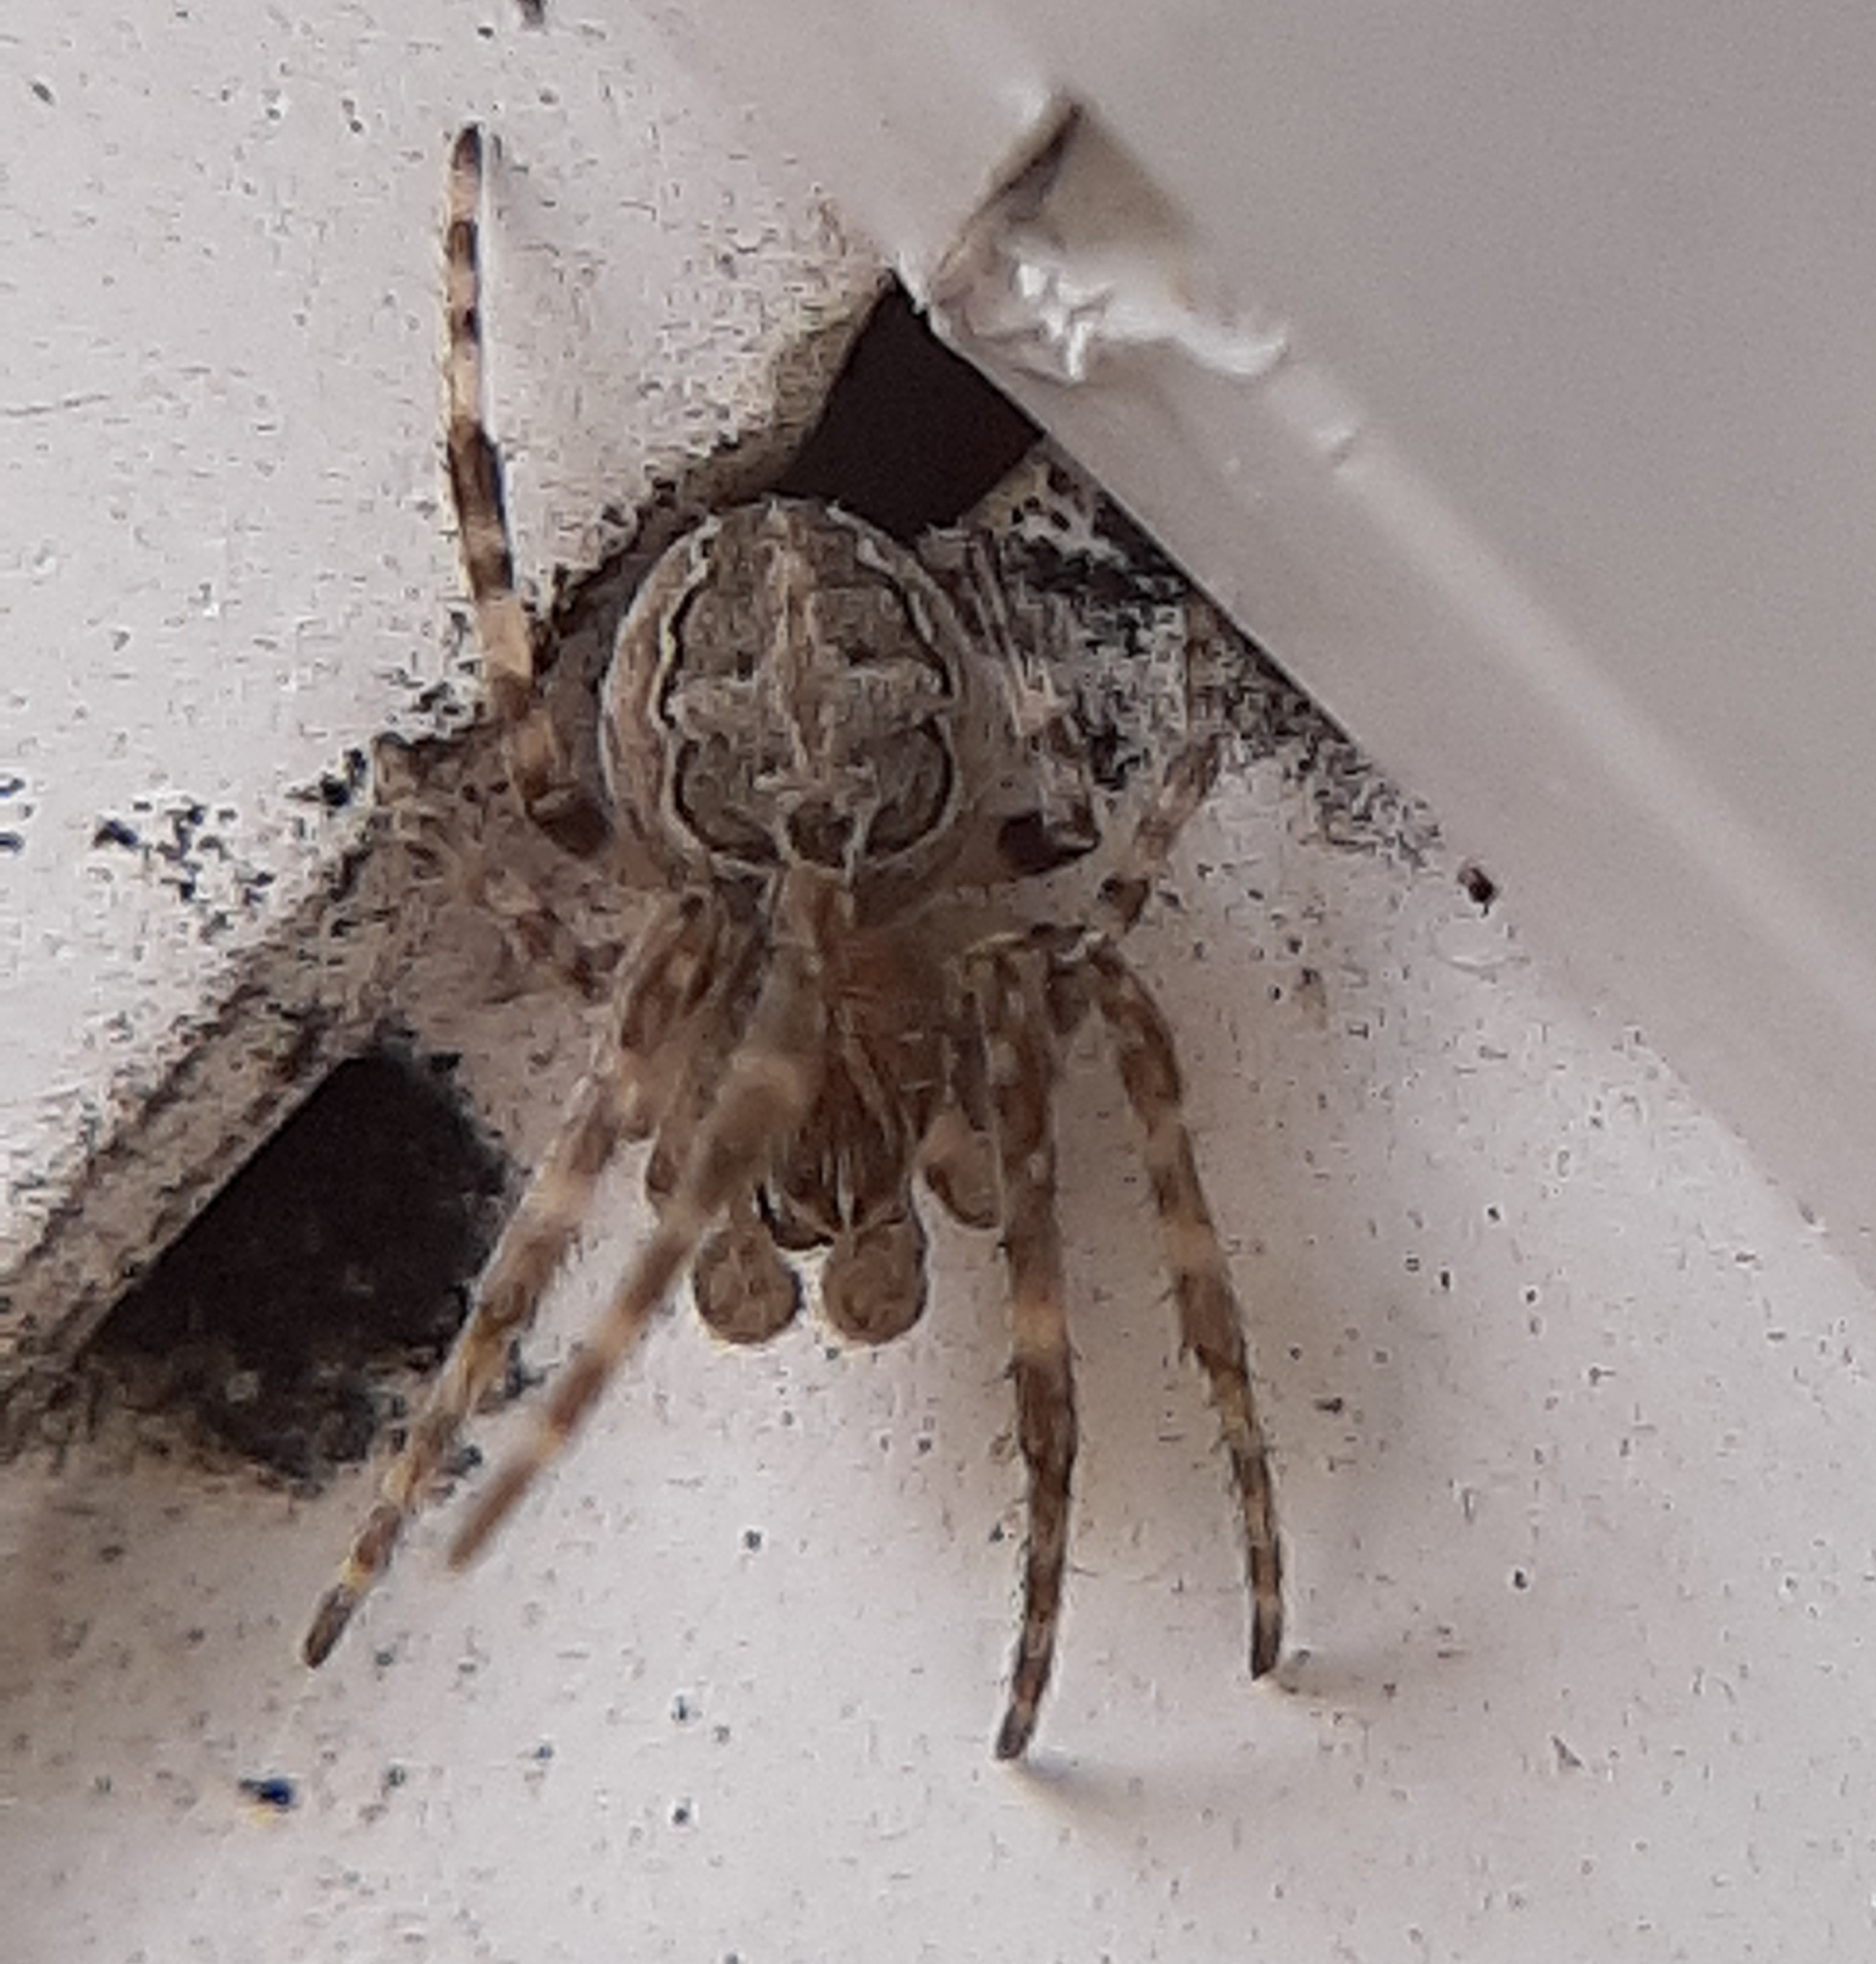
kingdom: Animalia
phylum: Arthropoda
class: Arachnida
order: Araneae
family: Araneidae
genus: Larinioides
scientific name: Larinioides sclopetarius
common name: Bridge orbweaver
